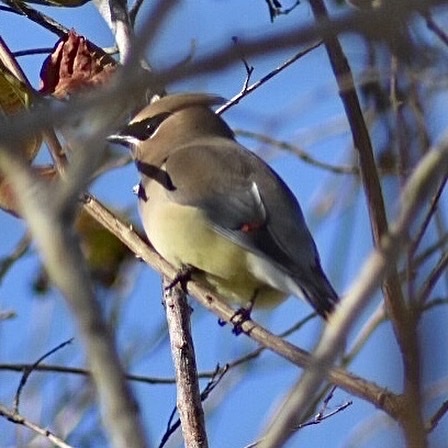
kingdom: Animalia
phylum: Chordata
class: Aves
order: Passeriformes
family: Bombycillidae
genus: Bombycilla
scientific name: Bombycilla cedrorum
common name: Cedar waxwing
